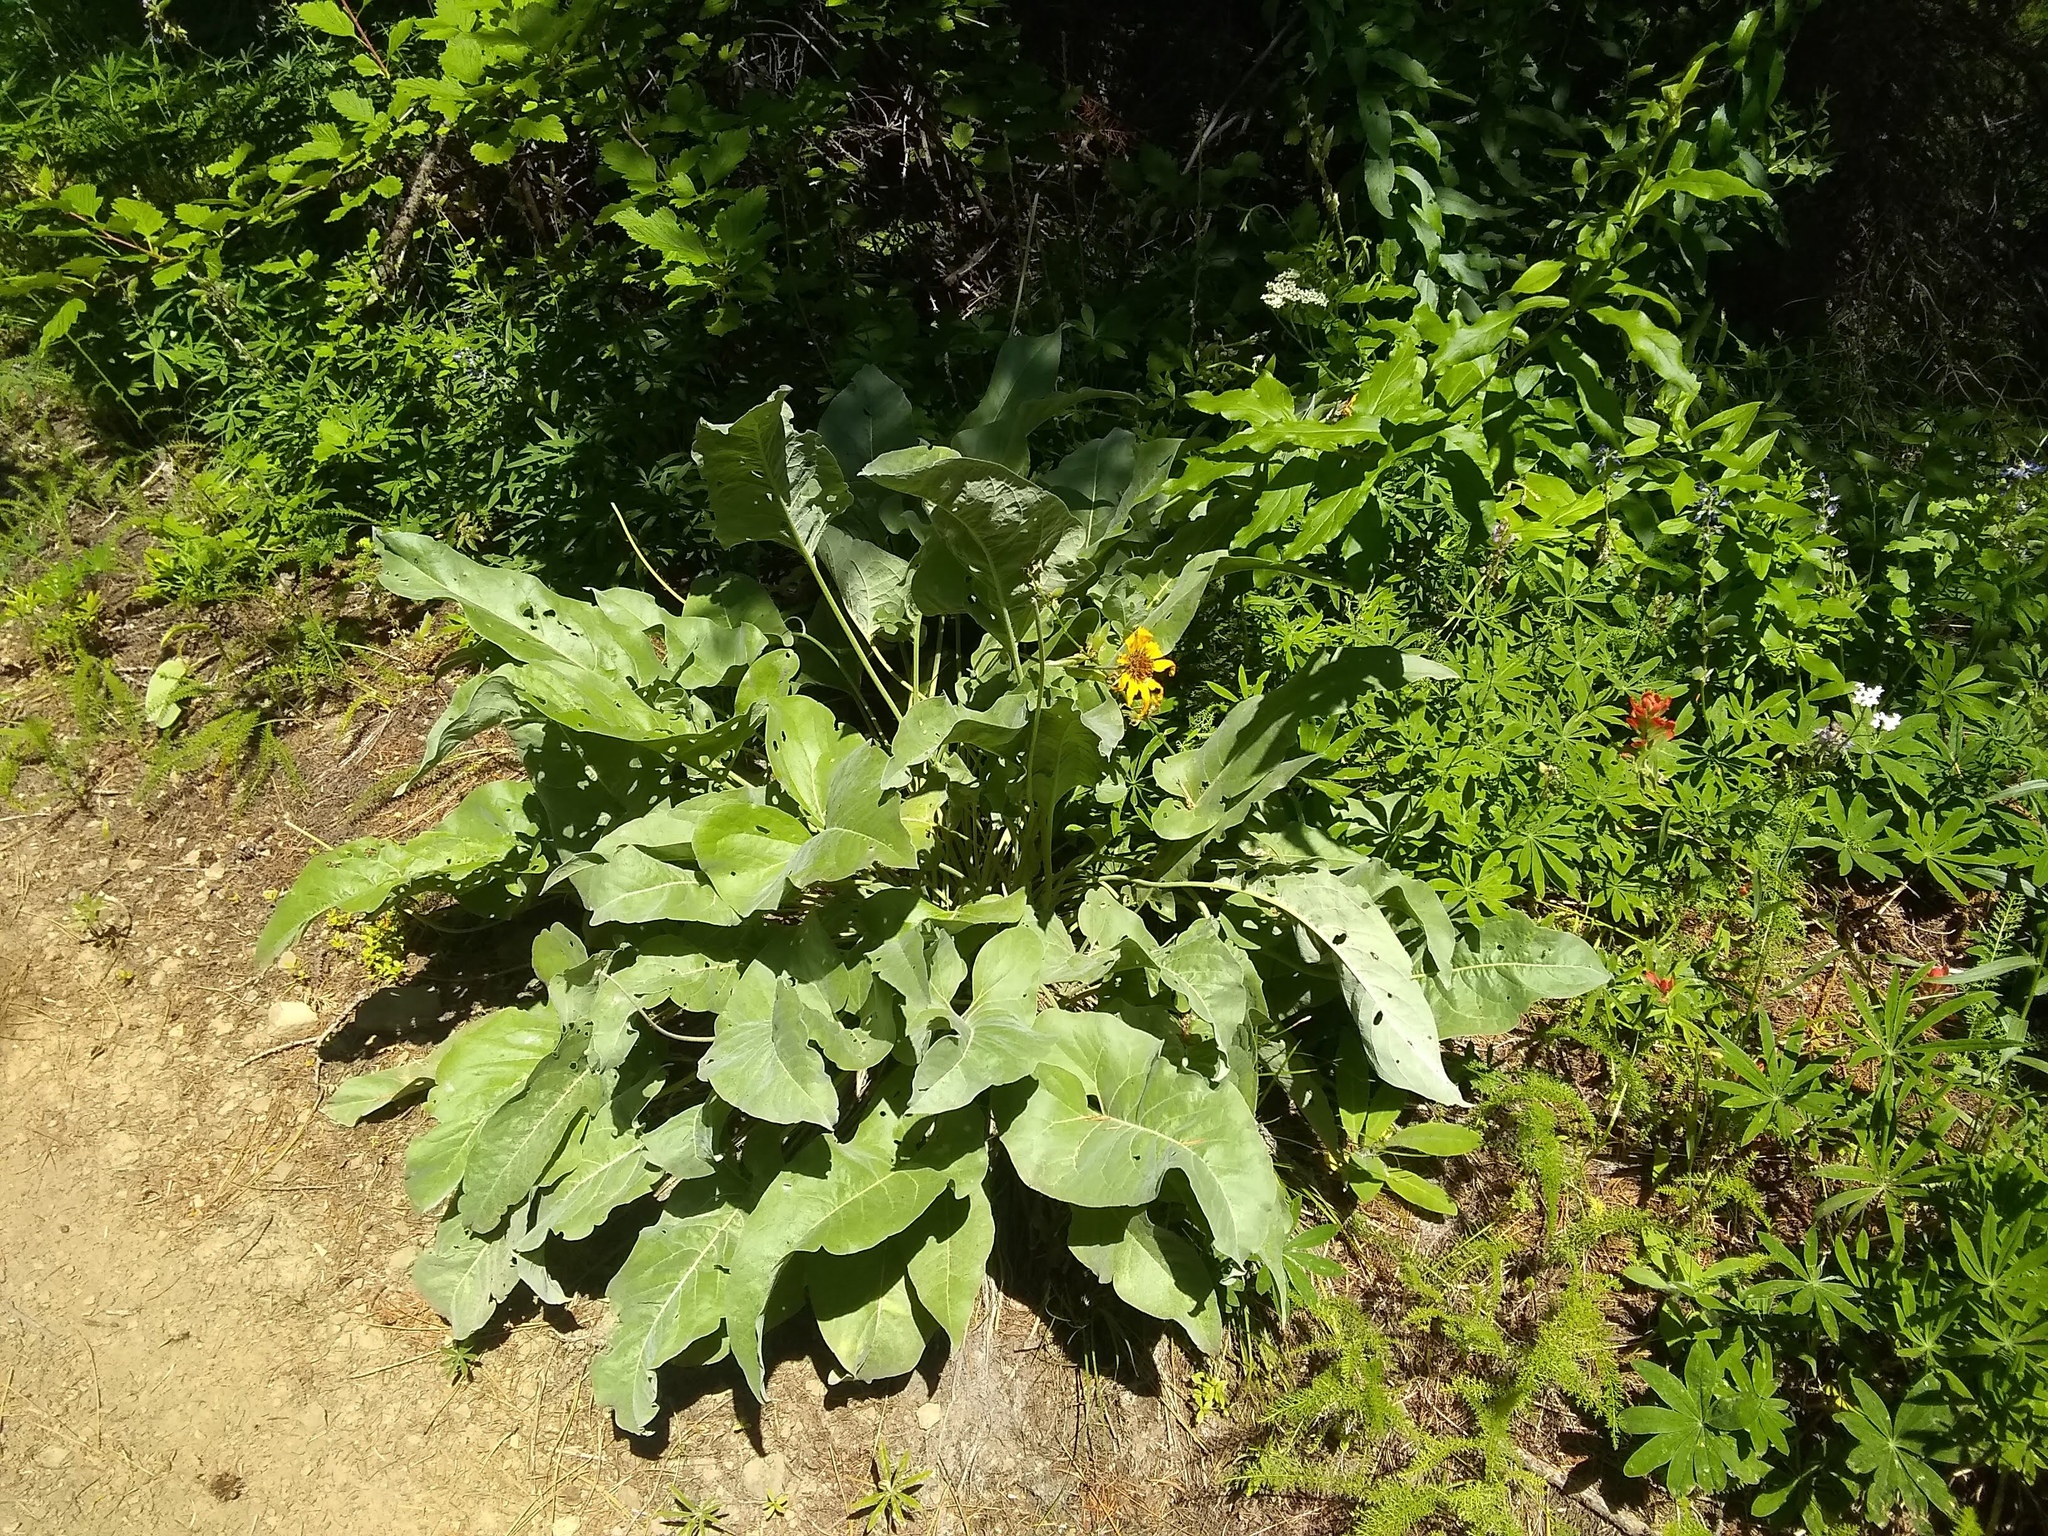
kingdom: Plantae
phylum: Tracheophyta
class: Magnoliopsida
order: Asterales
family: Asteraceae
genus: Wyethia
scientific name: Wyethia sagittata
